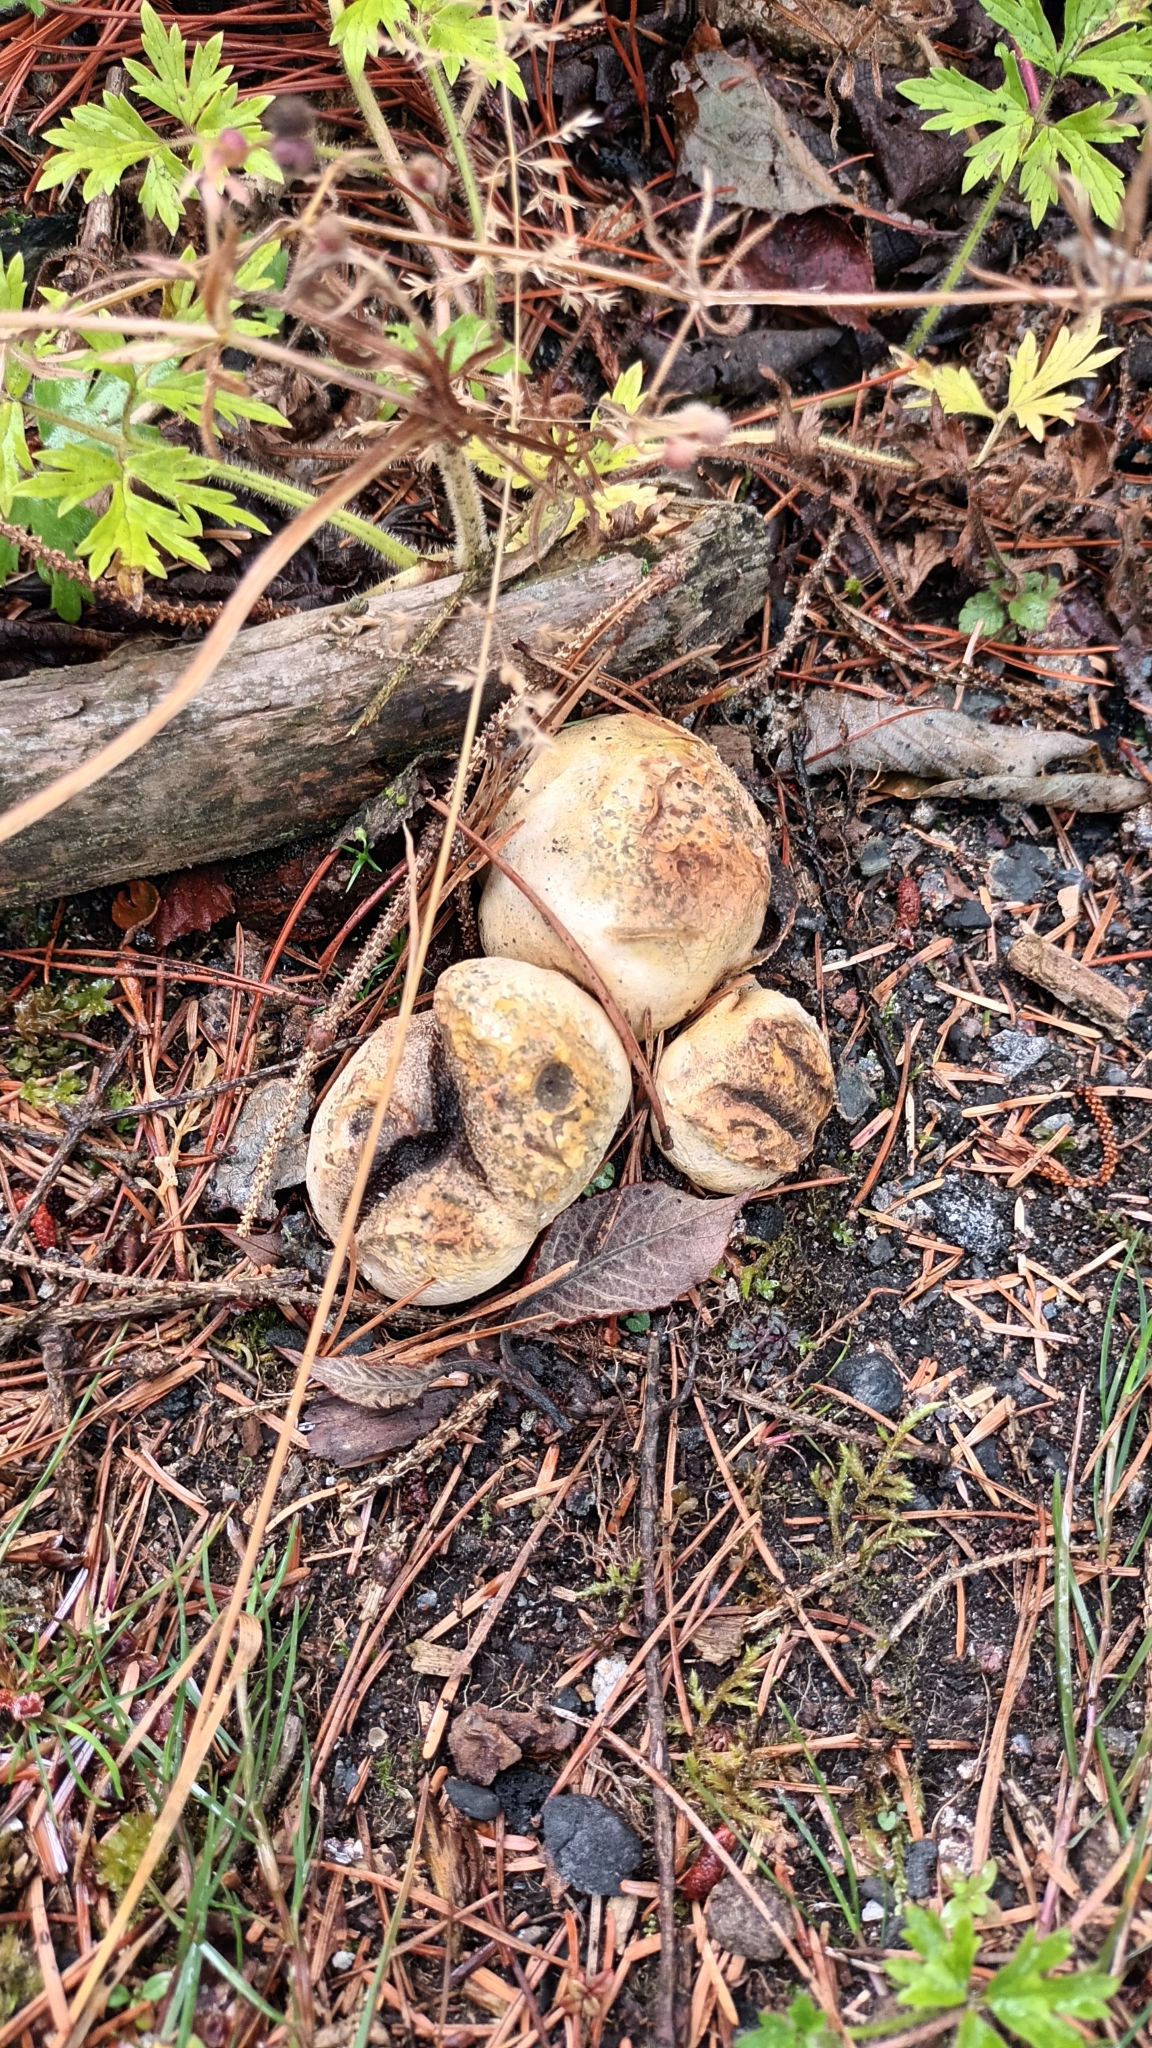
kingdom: Fungi
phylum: Basidiomycota
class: Agaricomycetes
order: Boletales
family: Sclerodermataceae
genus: Scleroderma
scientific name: Scleroderma citrinum
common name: Common earthball
